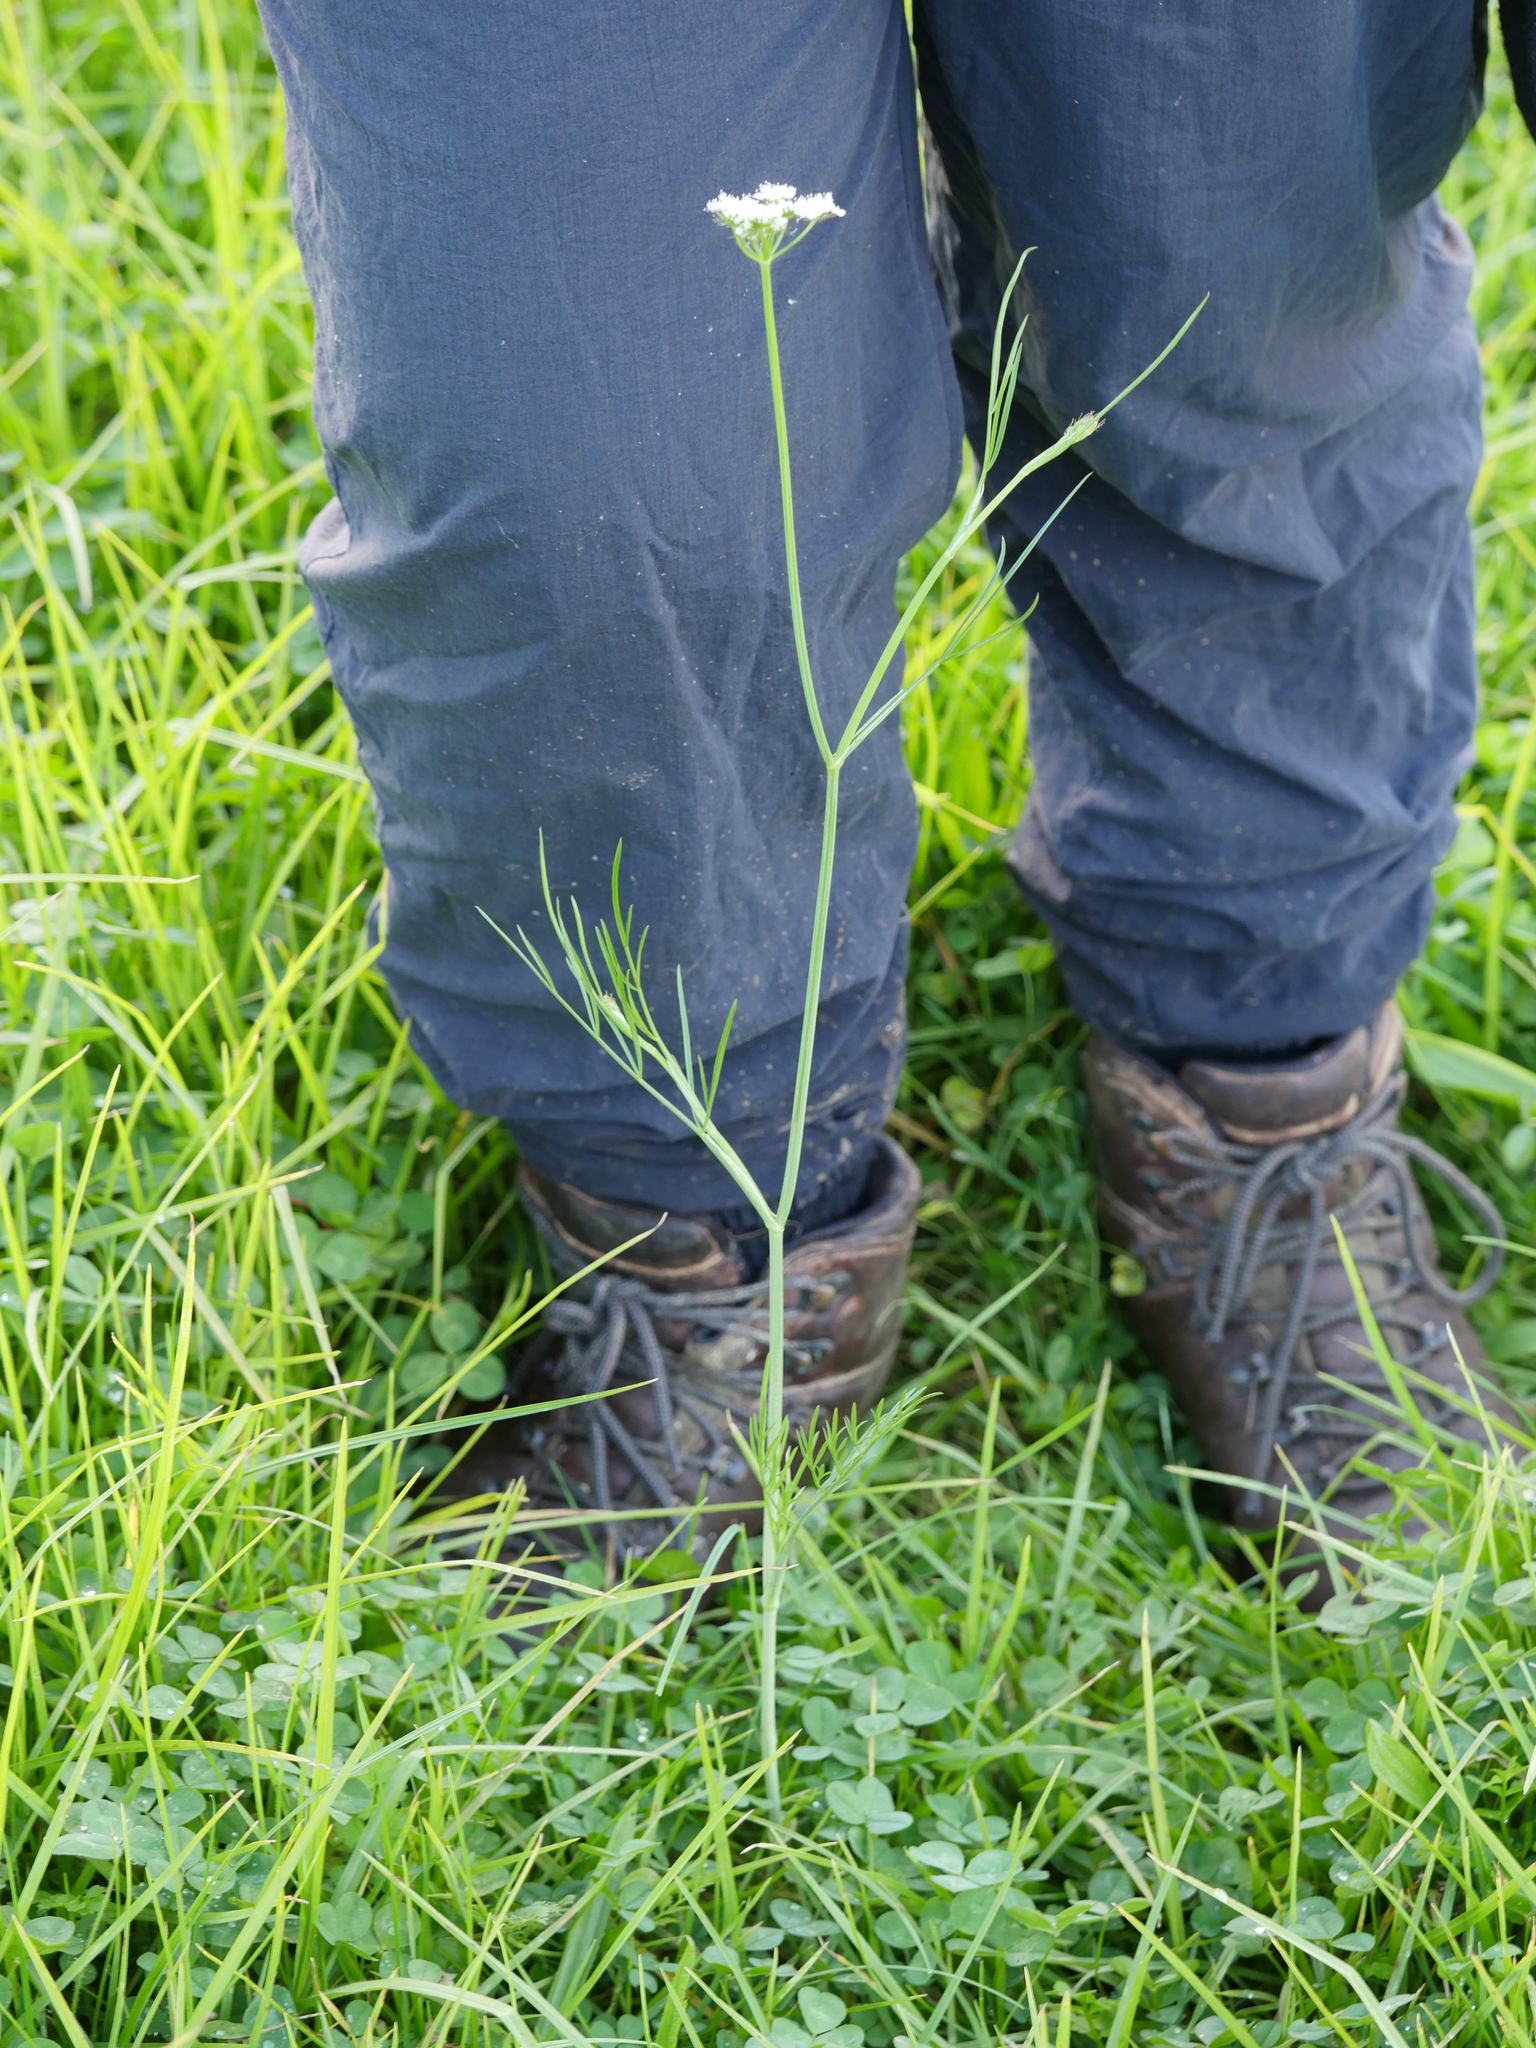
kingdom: Plantae
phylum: Tracheophyta
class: Magnoliopsida
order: Apiales
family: Apiaceae
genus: Oenanthe
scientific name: Oenanthe pimpinelloides
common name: Corky-fruited water-dropwort
